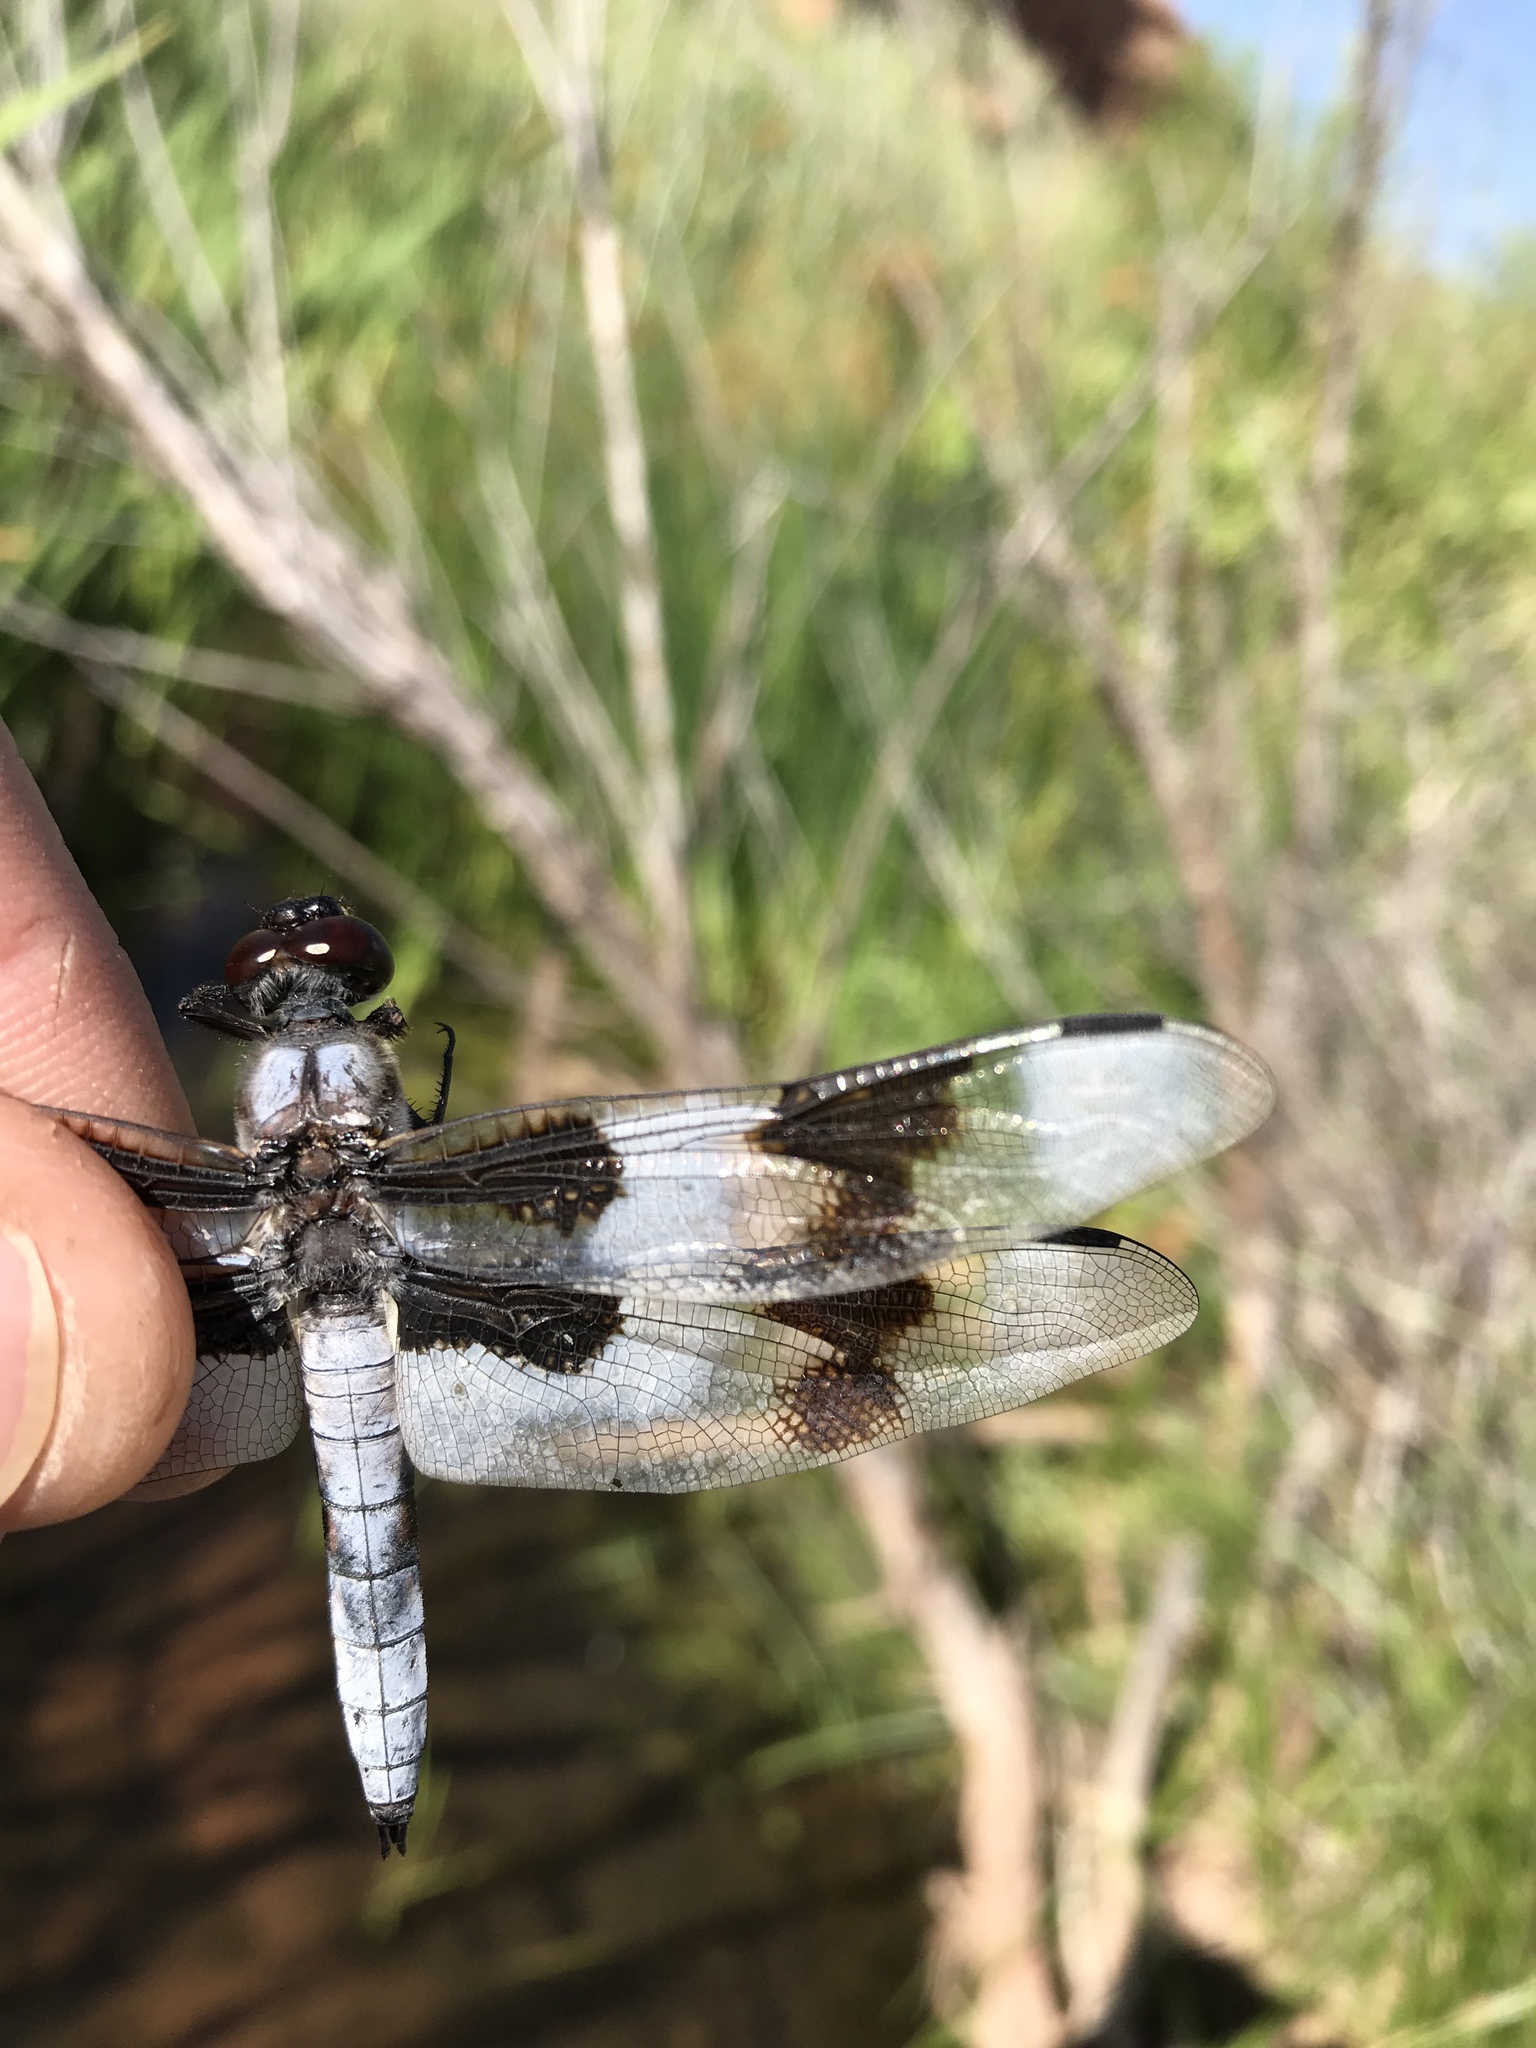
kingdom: Animalia
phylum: Arthropoda
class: Insecta
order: Odonata
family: Libellulidae
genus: Libellula
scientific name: Libellula forensis
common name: Eight-spotted skimmer
